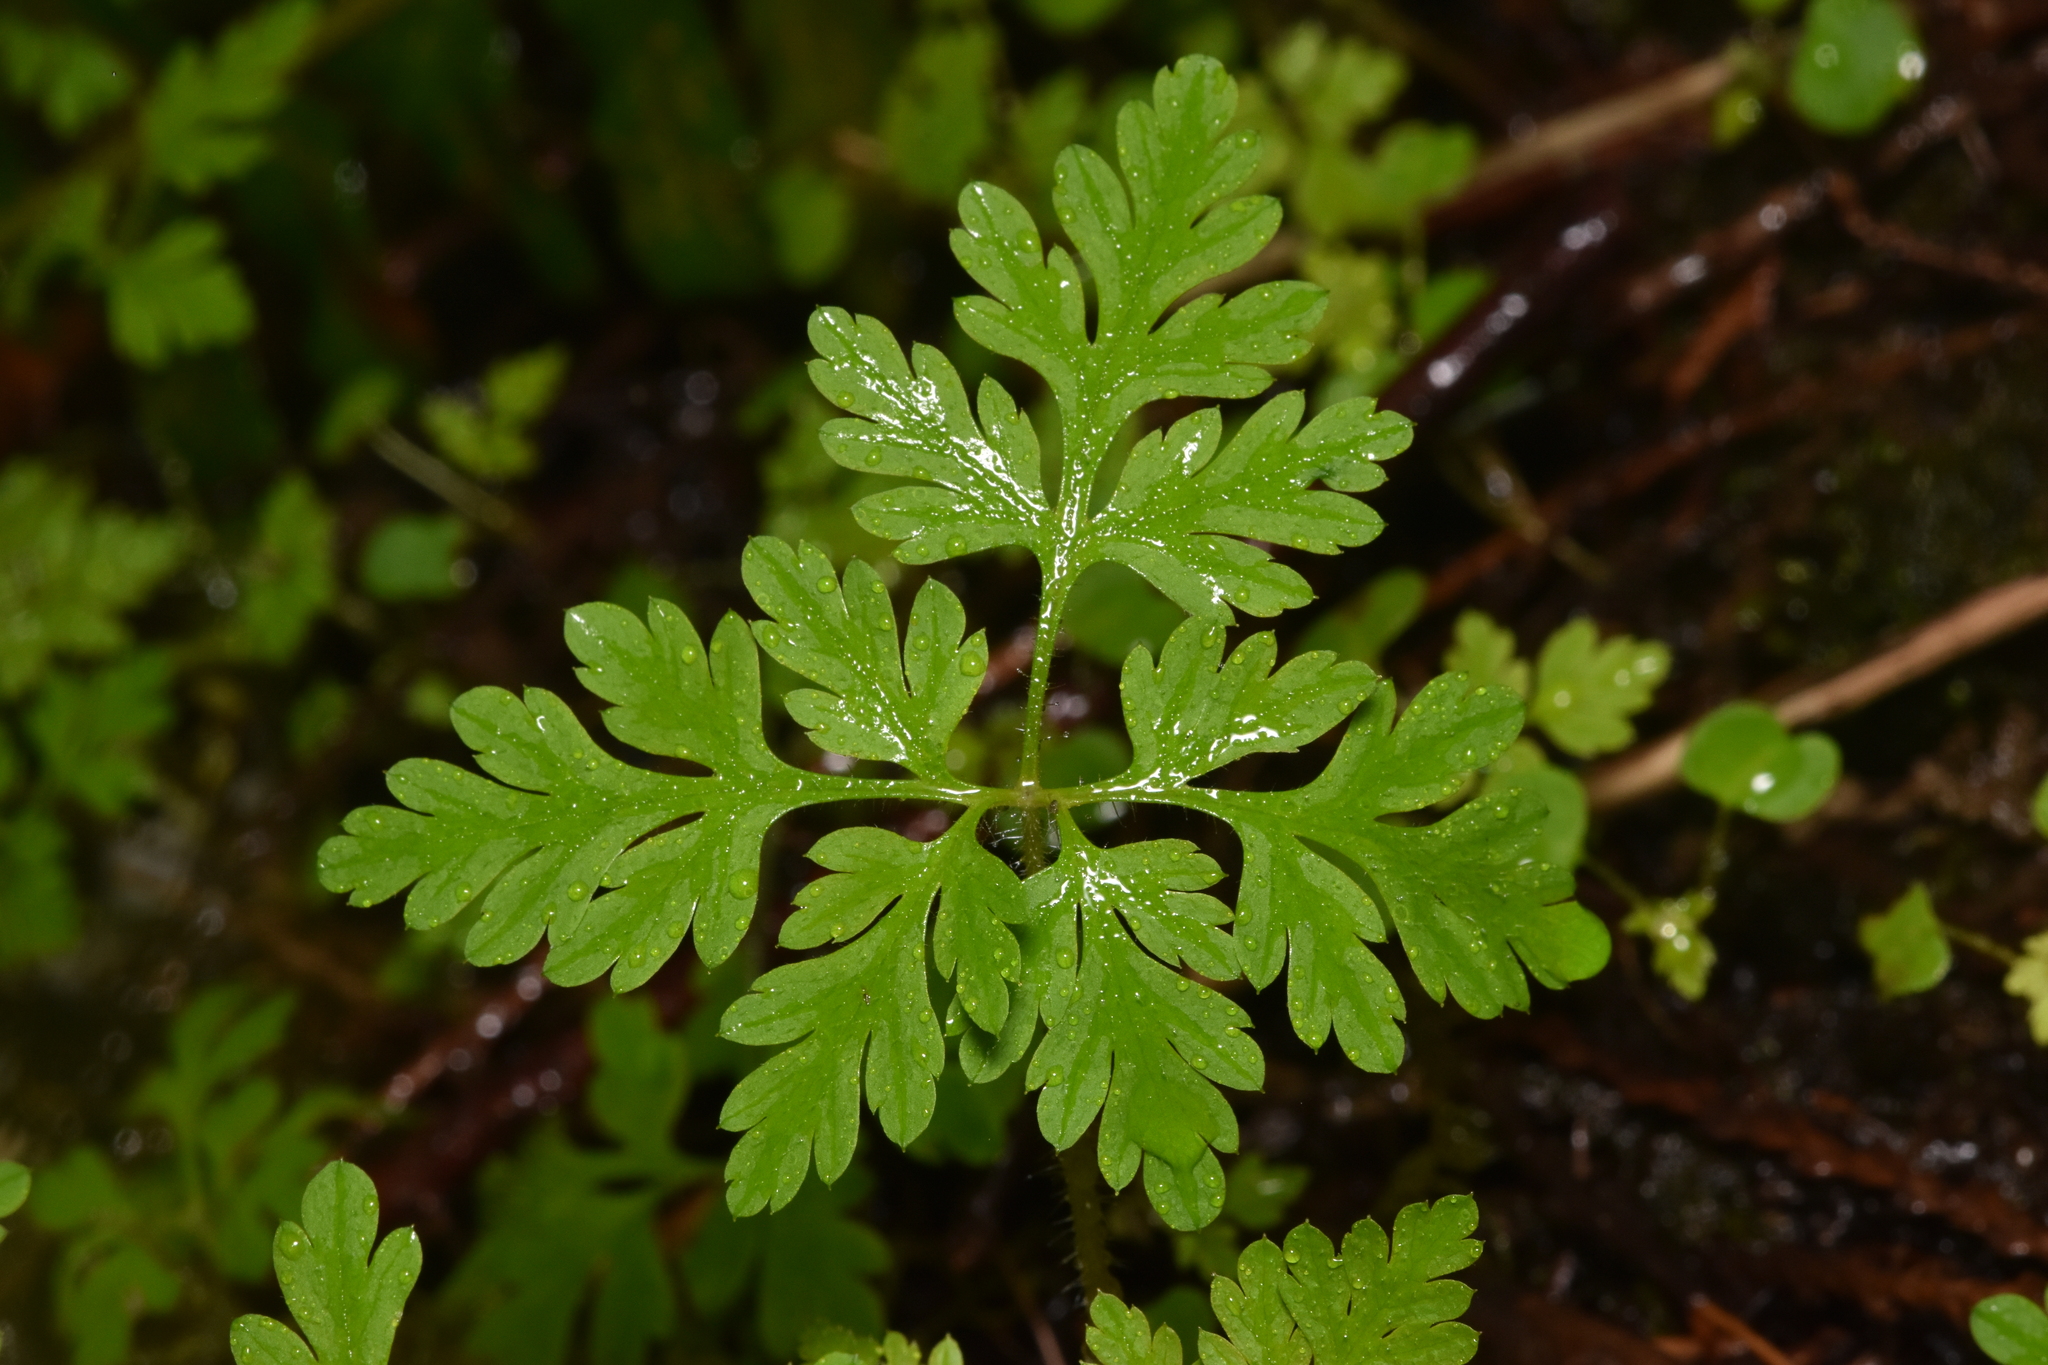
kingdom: Plantae
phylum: Tracheophyta
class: Magnoliopsida
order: Geraniales
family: Geraniaceae
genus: Geranium
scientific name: Geranium robertianum
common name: Herb-robert
